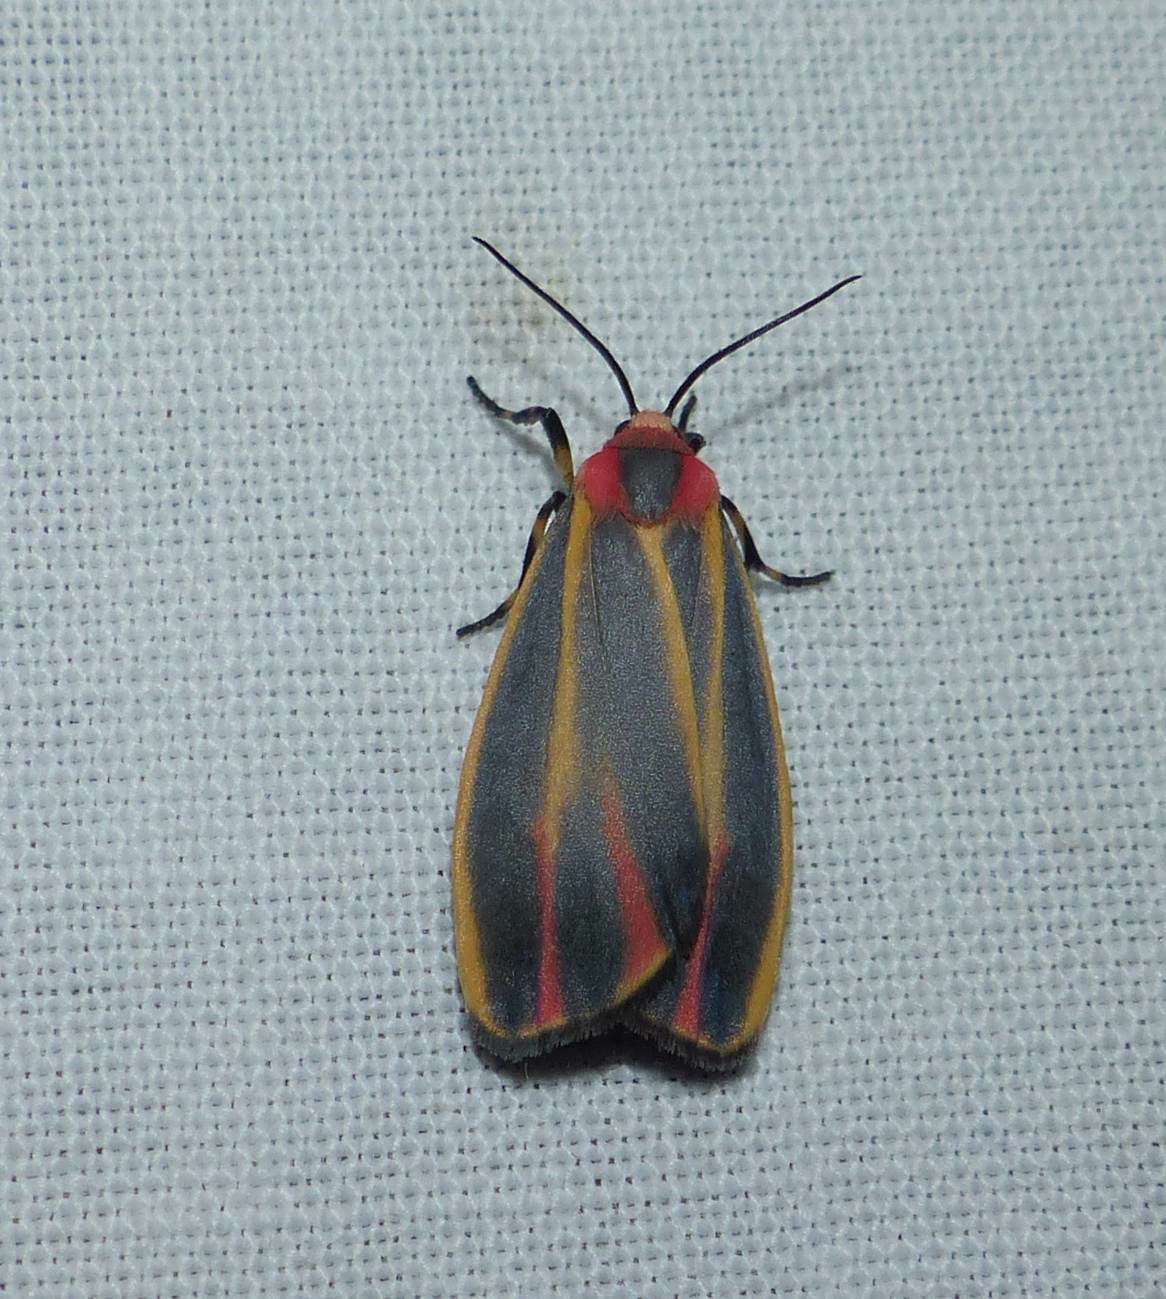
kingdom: Animalia
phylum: Arthropoda
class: Insecta
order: Lepidoptera
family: Erebidae
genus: Hypoprepia
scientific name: Hypoprepia fucosa
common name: Painted lichen moth
